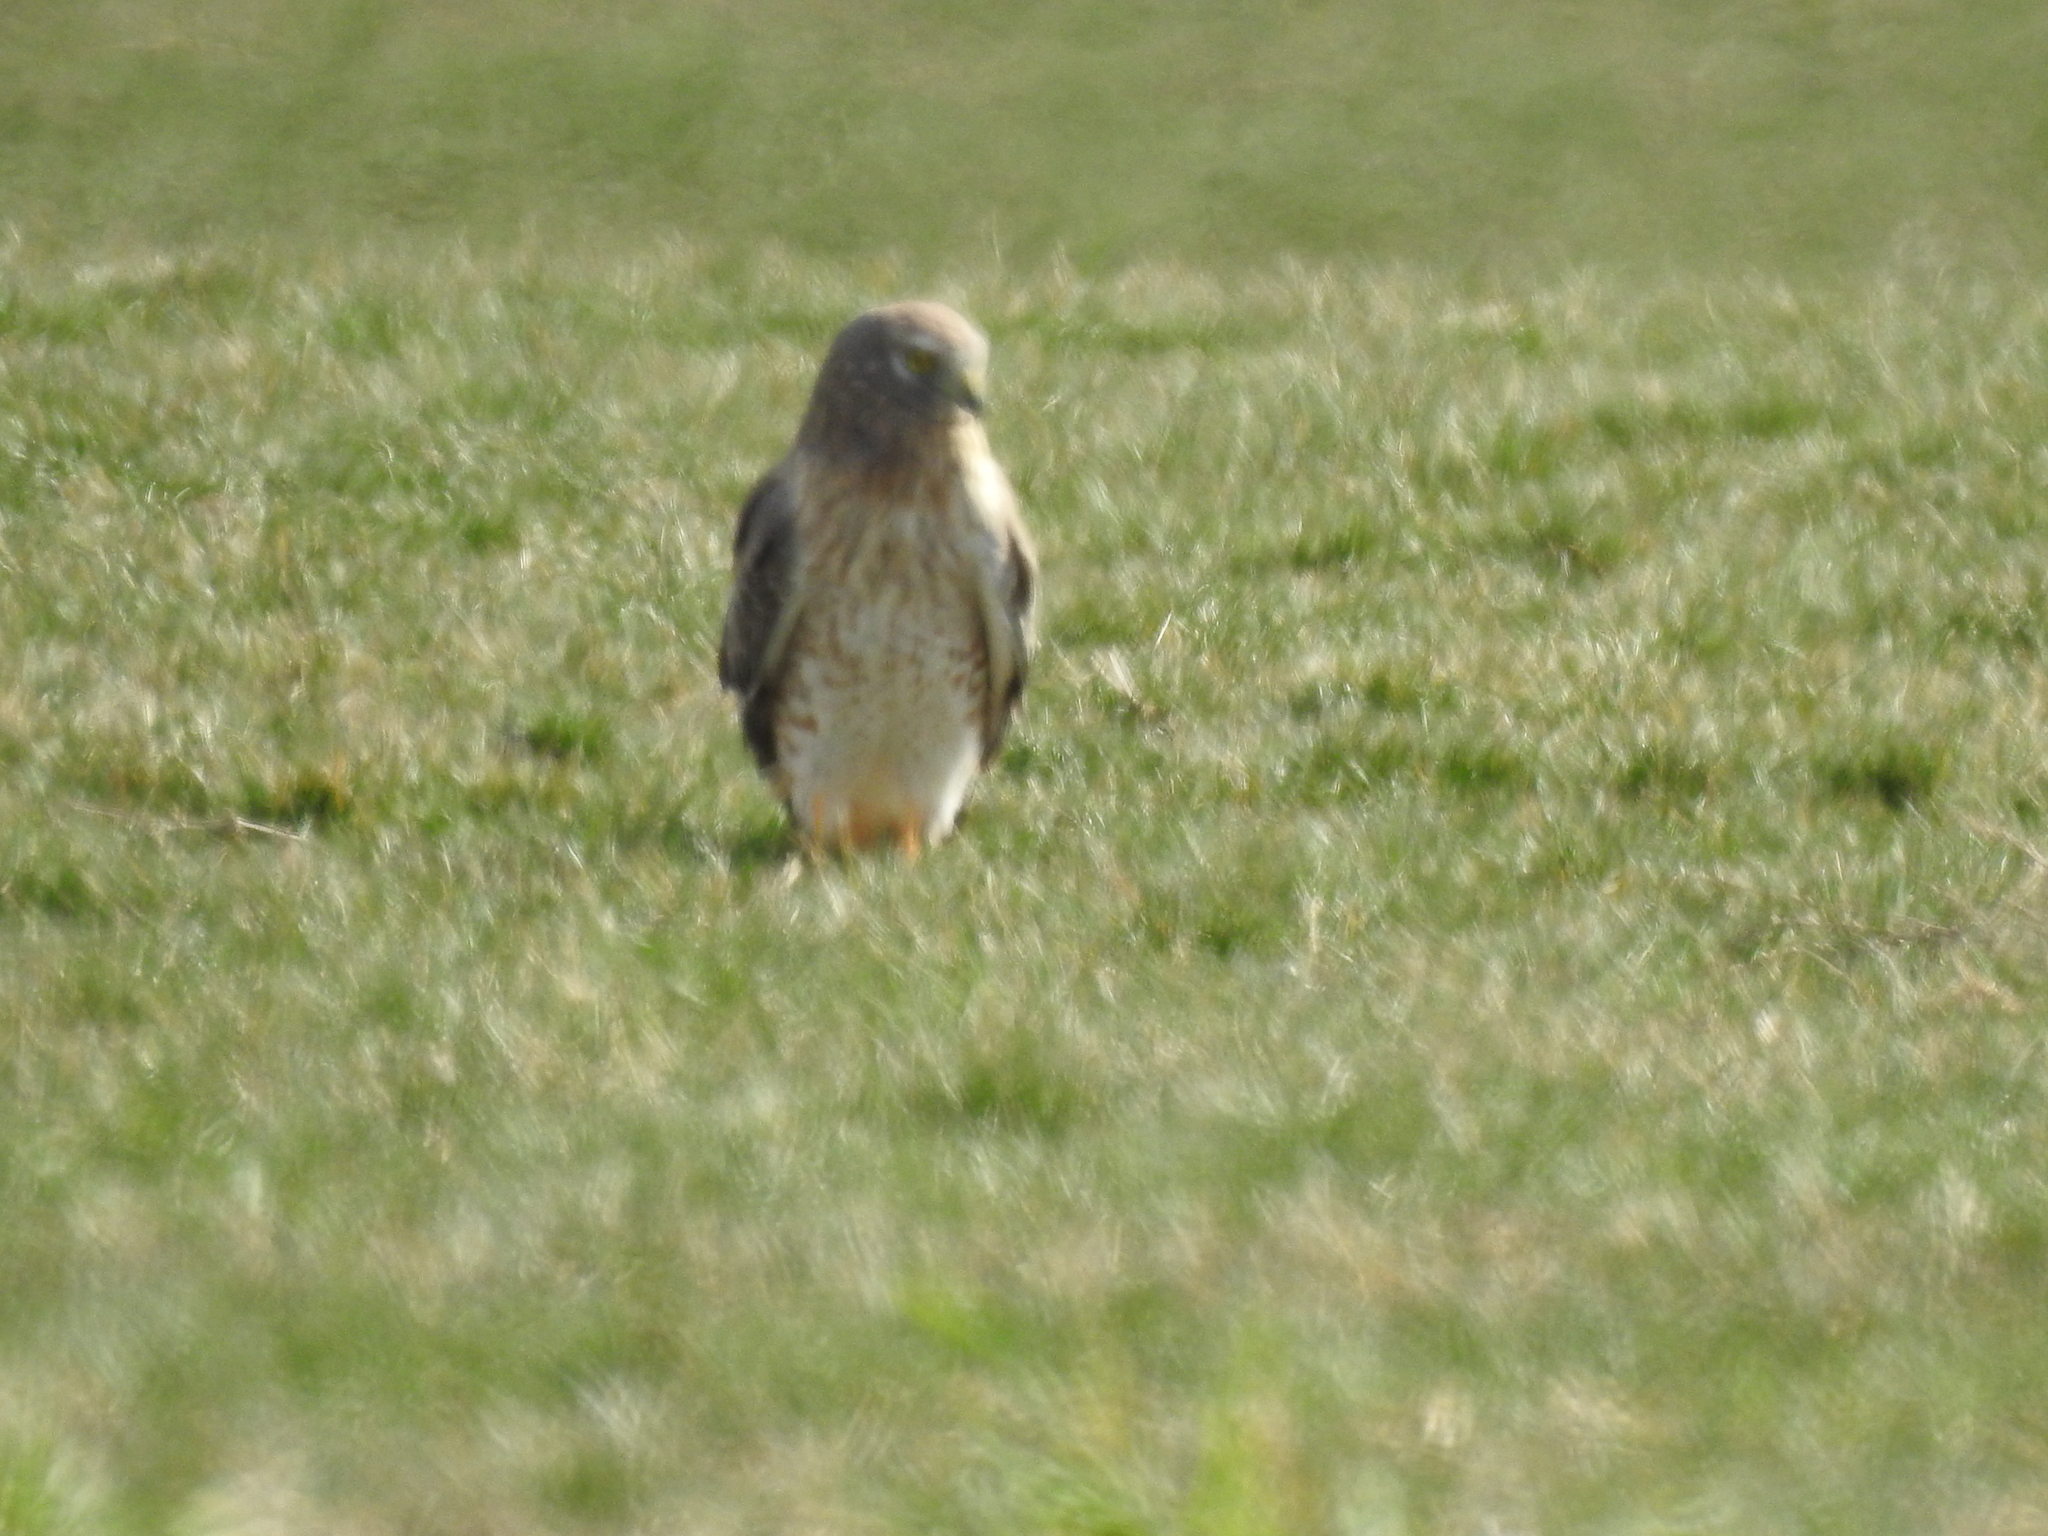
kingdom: Animalia
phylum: Chordata
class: Aves
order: Accipitriformes
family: Accipitridae
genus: Circus
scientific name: Circus cyaneus
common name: Hen harrier
